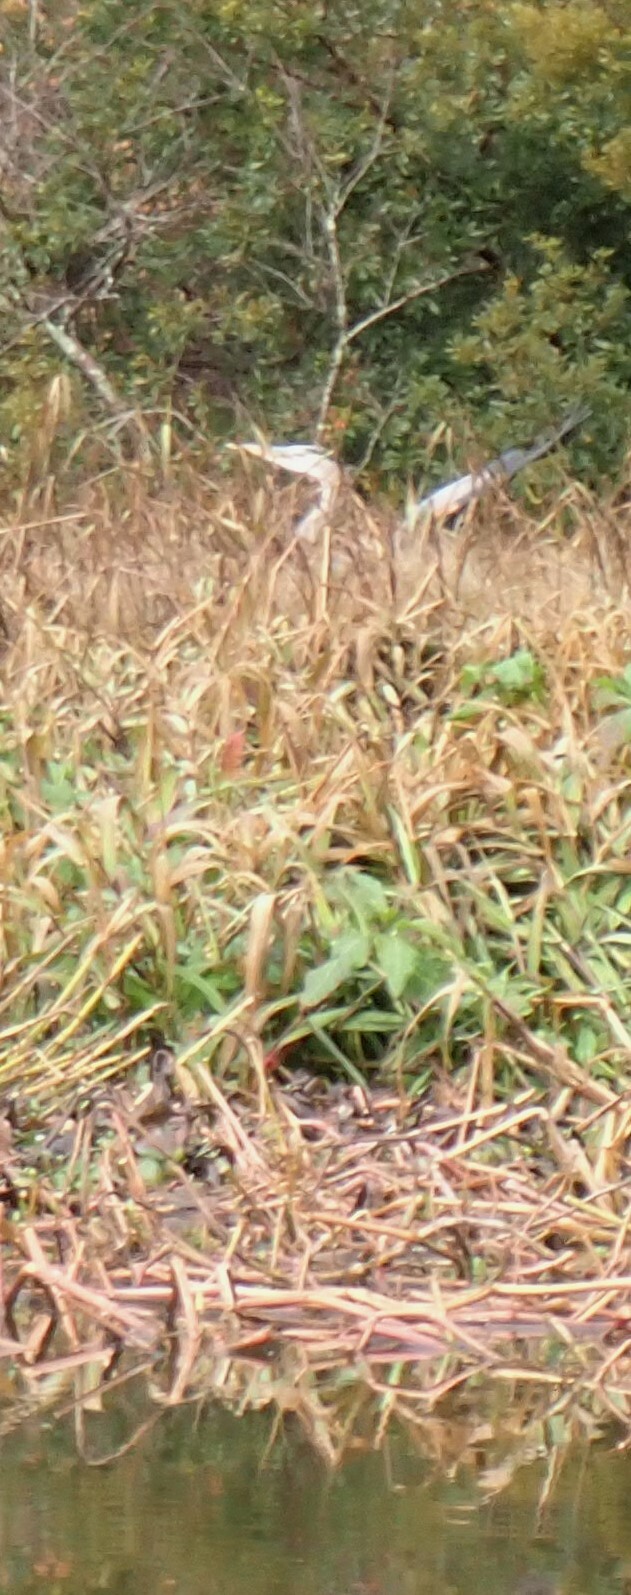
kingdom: Animalia
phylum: Chordata
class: Aves
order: Pelecaniformes
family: Ardeidae
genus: Ardea
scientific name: Ardea herodias
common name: Great blue heron
